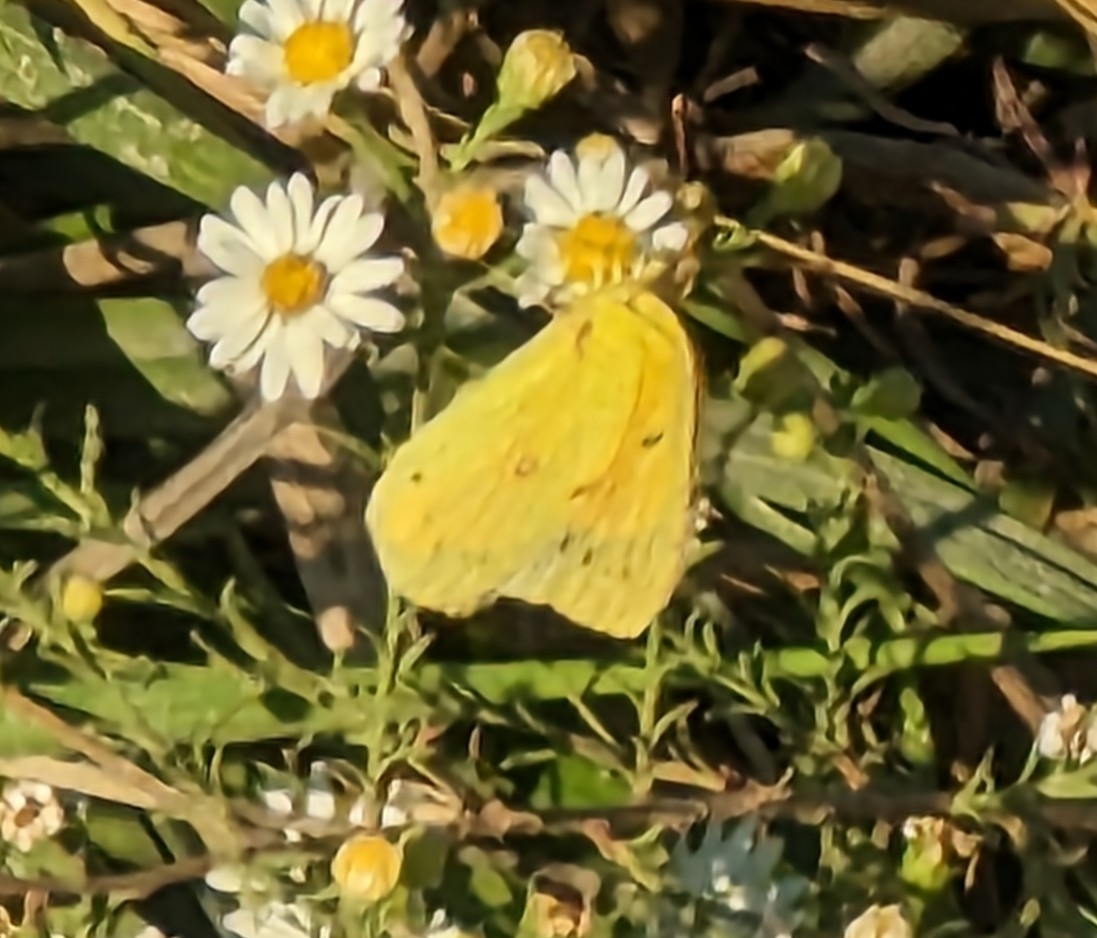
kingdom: Animalia
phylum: Arthropoda
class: Insecta
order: Lepidoptera
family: Pieridae
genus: Colias
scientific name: Colias eurytheme
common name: Alfalfa butterfly
